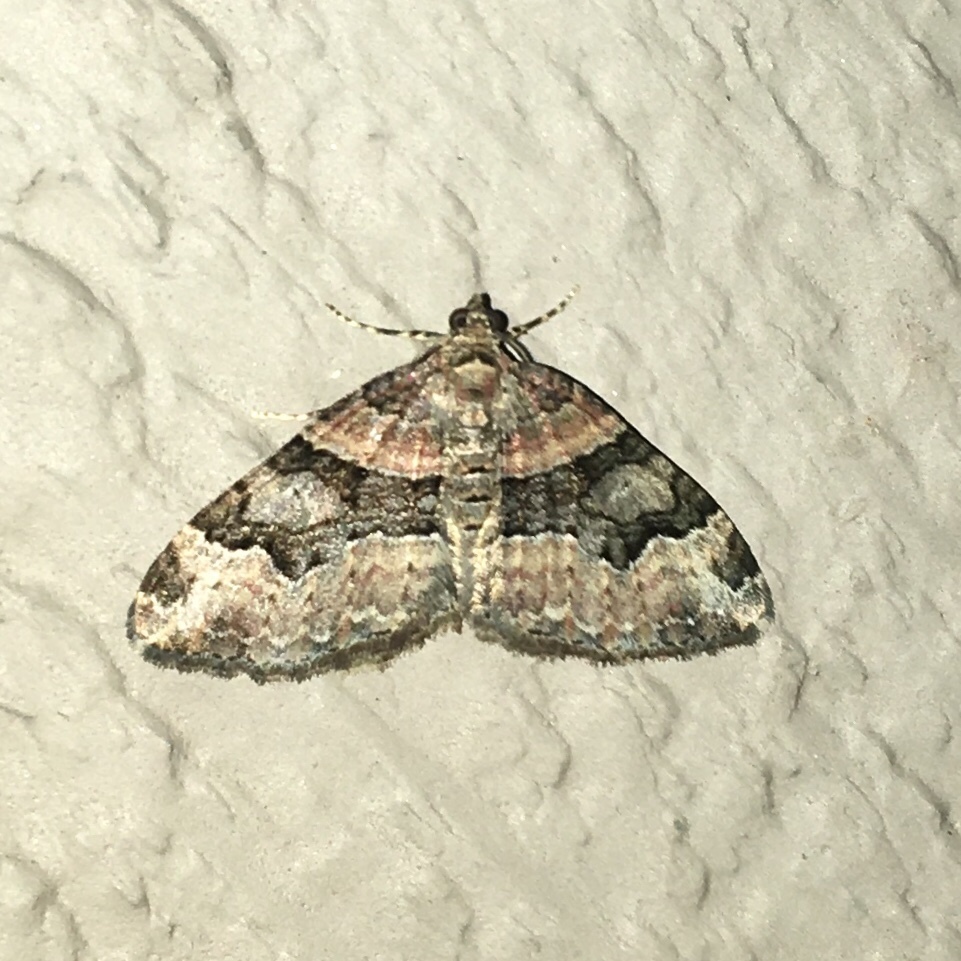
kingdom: Animalia
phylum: Arthropoda
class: Insecta
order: Lepidoptera
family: Geometridae
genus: Xanthorhoe
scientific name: Xanthorhoe lacustrata
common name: Toothed brown carpet
